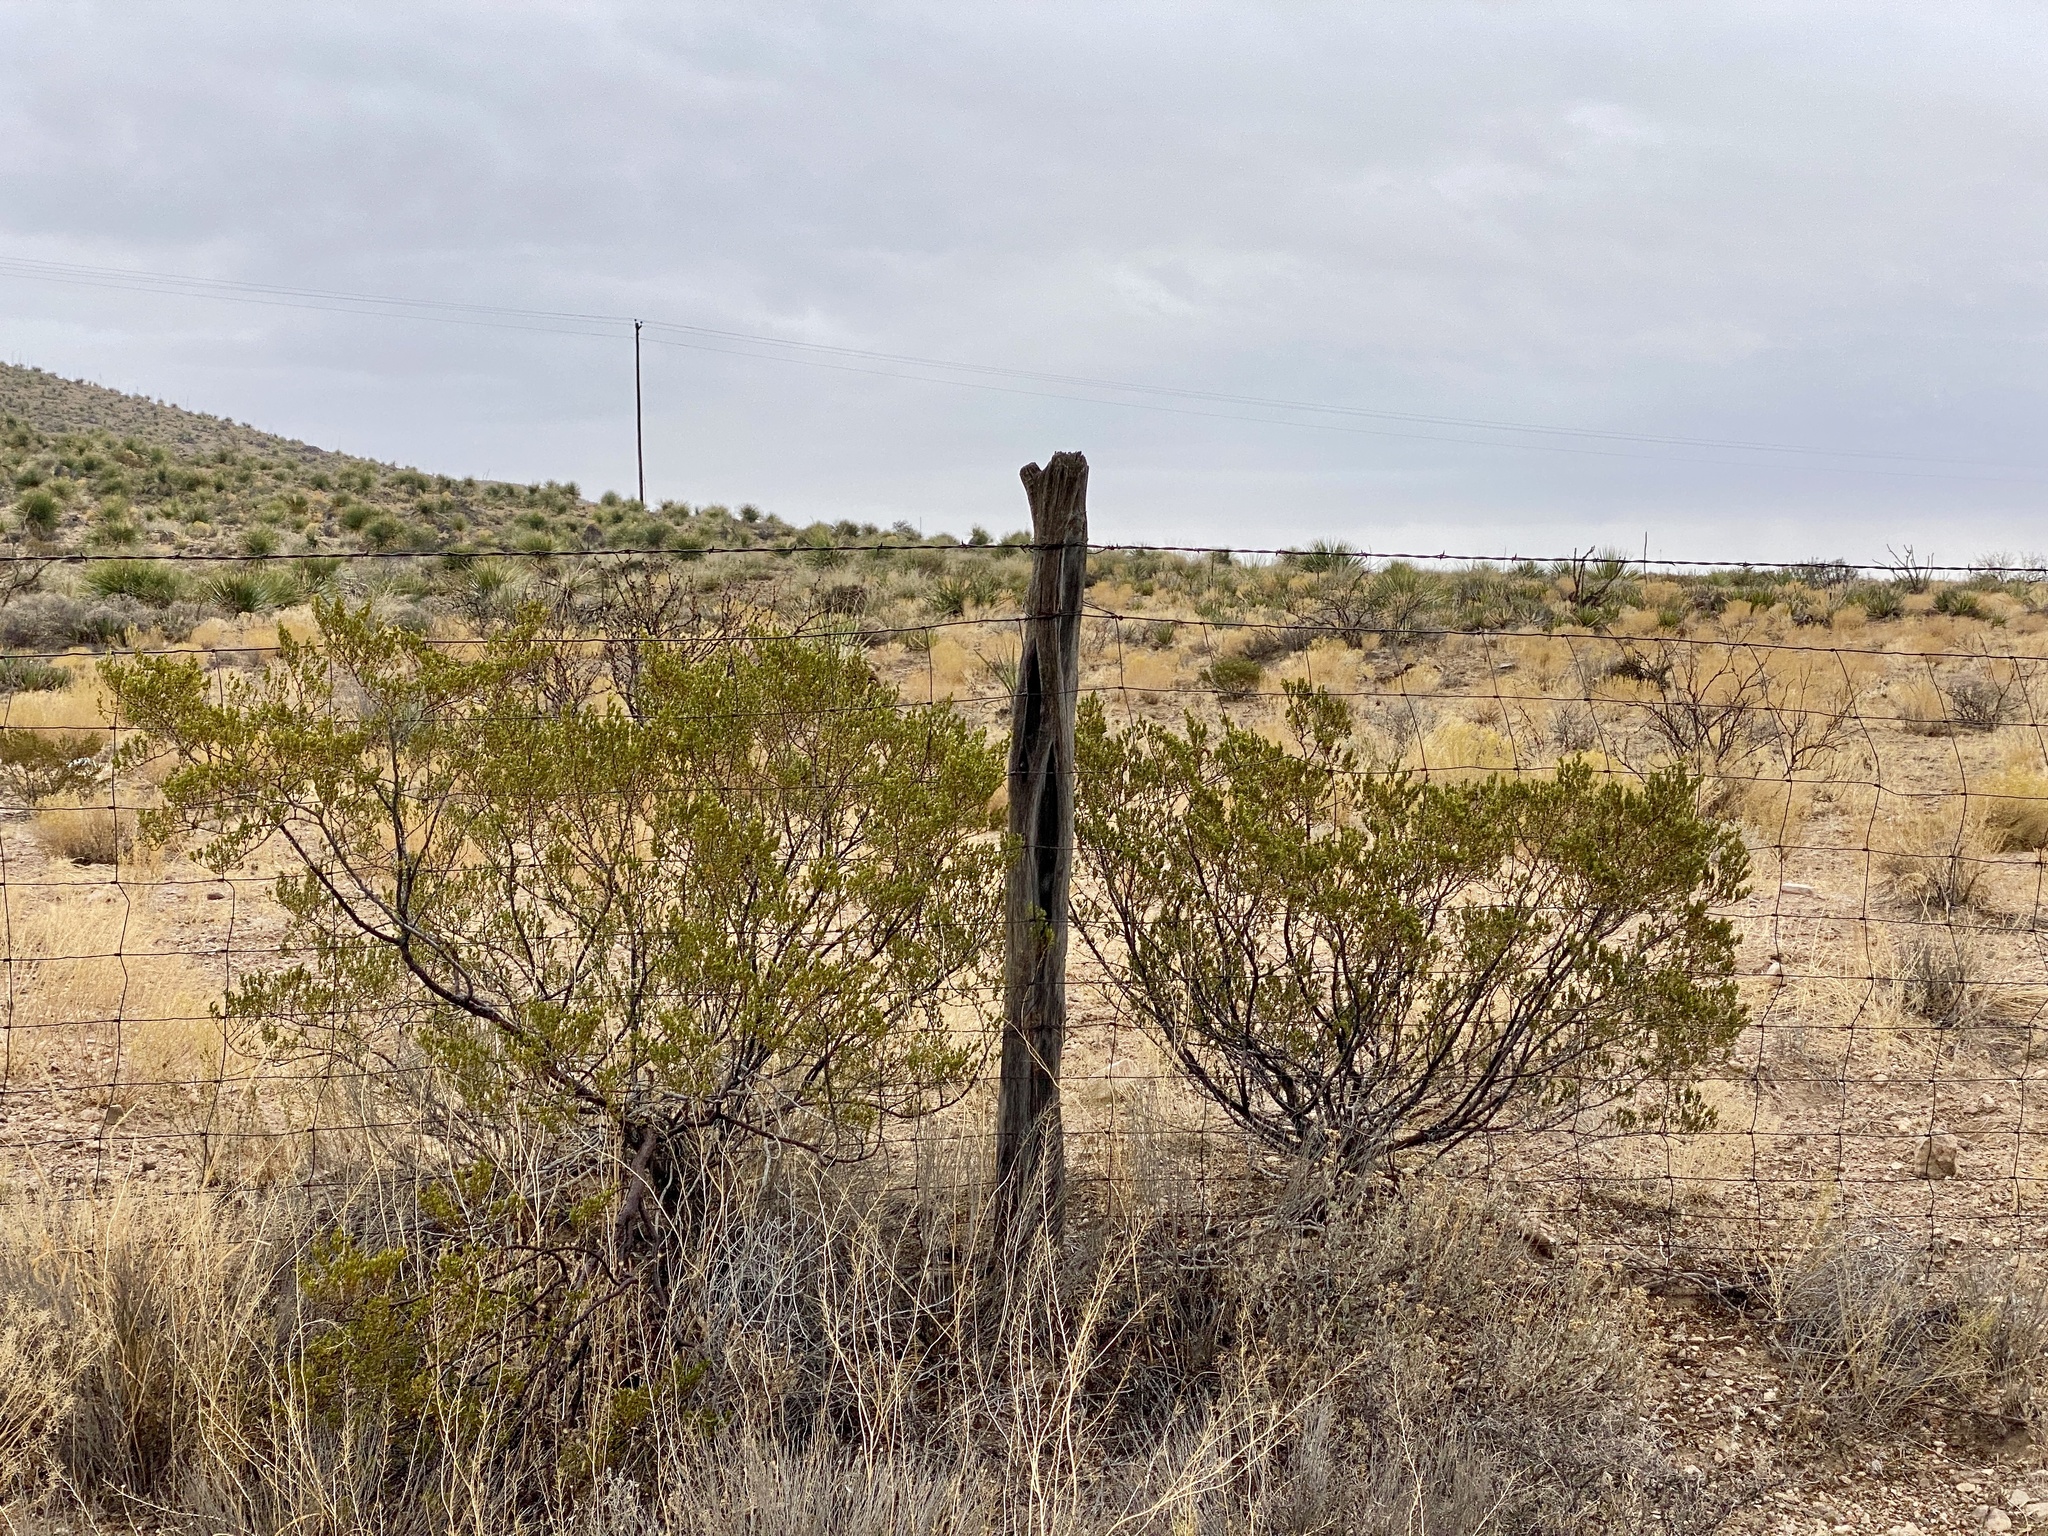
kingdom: Plantae
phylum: Tracheophyta
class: Magnoliopsida
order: Zygophyllales
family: Zygophyllaceae
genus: Larrea
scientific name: Larrea tridentata
